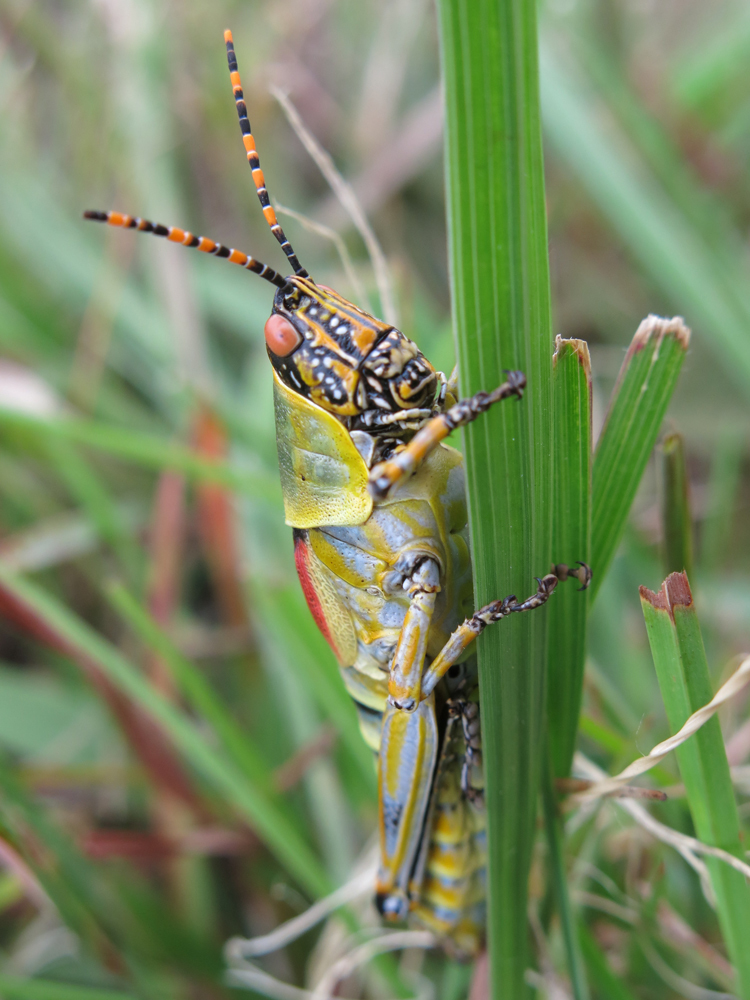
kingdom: Animalia
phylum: Arthropoda
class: Insecta
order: Orthoptera
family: Pyrgomorphidae
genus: Zonocerus
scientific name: Zonocerus elegans
